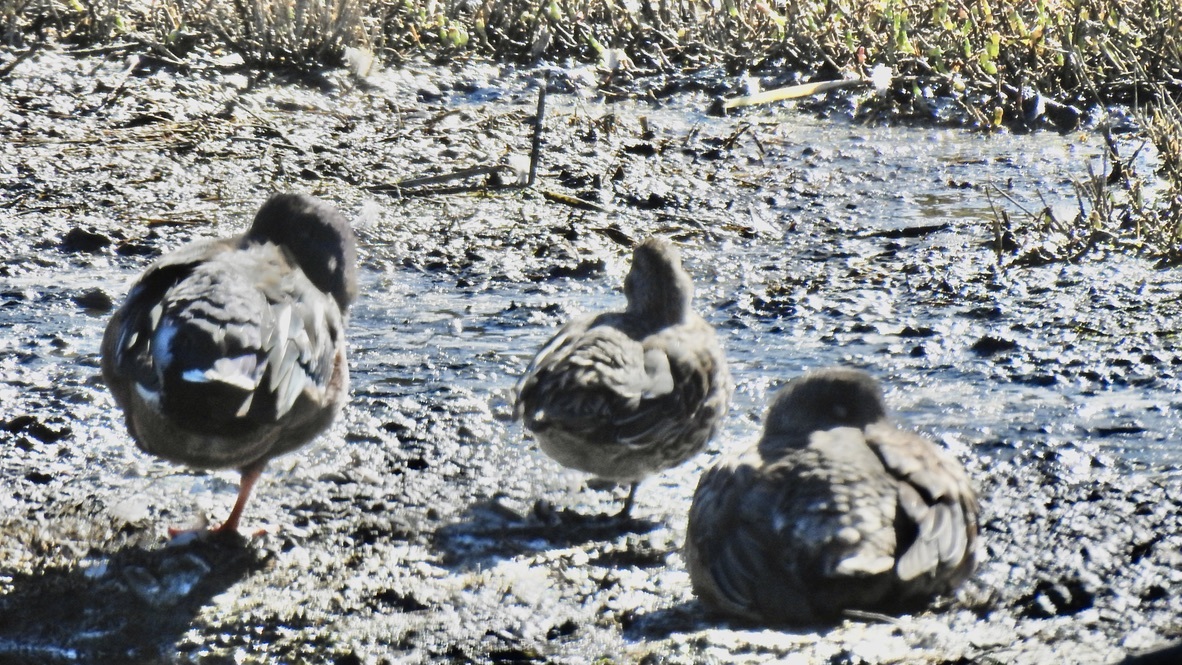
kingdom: Animalia
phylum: Chordata
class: Aves
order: Anseriformes
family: Anatidae
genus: Anas
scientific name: Anas crecca
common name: Eurasian teal
